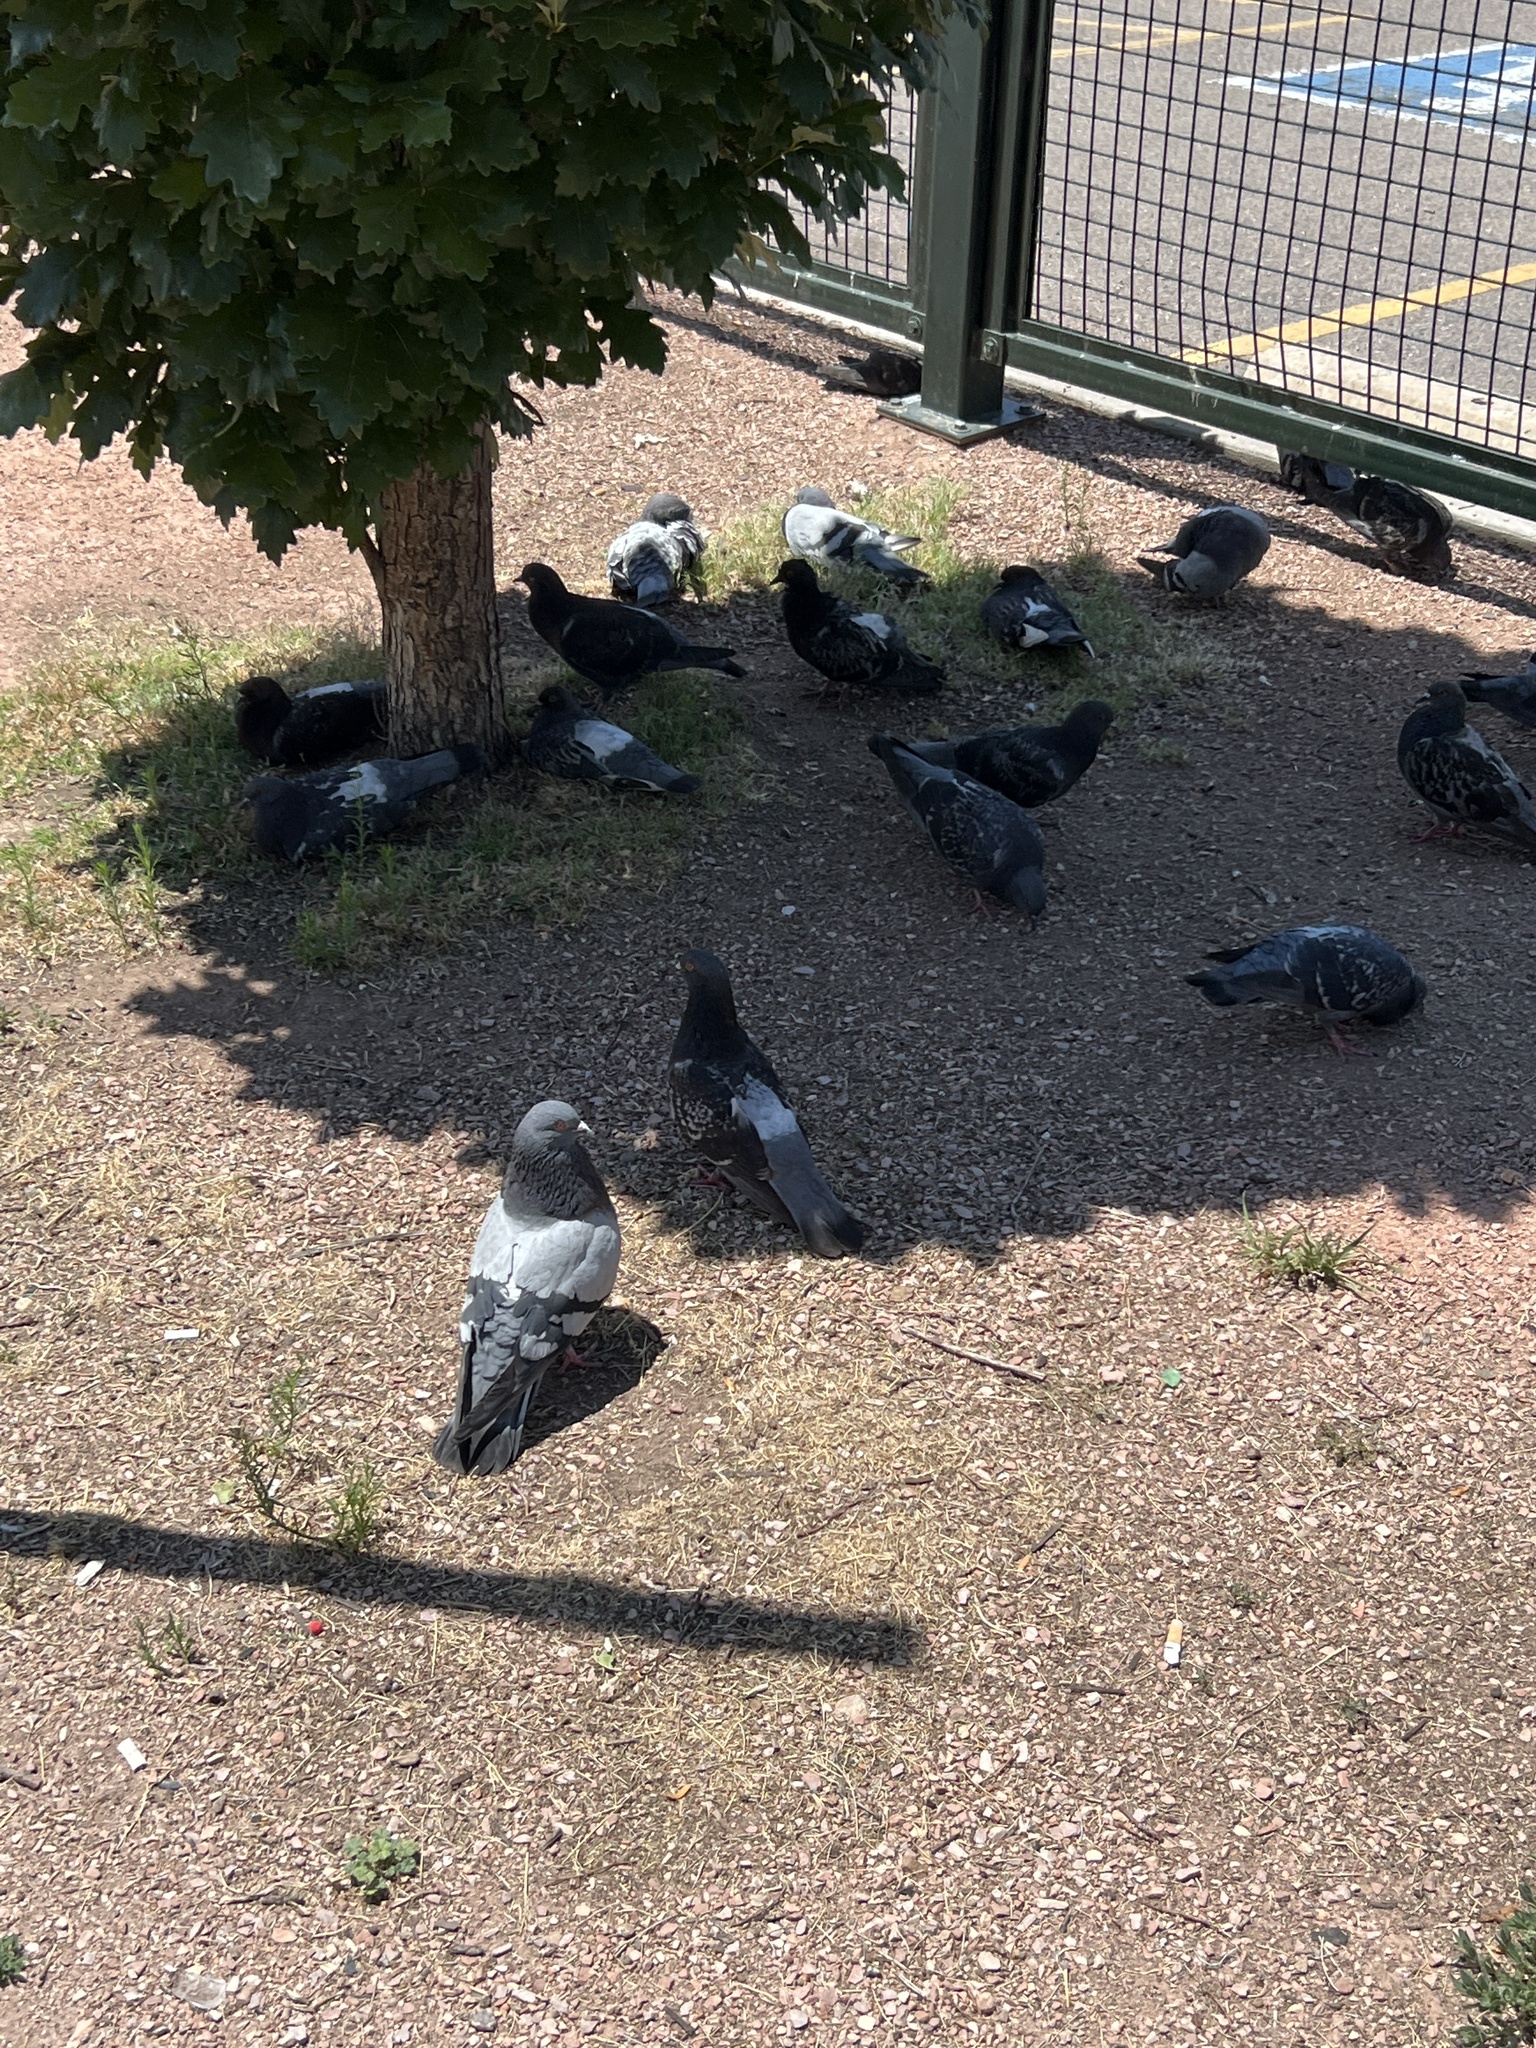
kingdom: Animalia
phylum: Chordata
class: Aves
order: Columbiformes
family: Columbidae
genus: Columba
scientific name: Columba livia
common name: Rock pigeon
